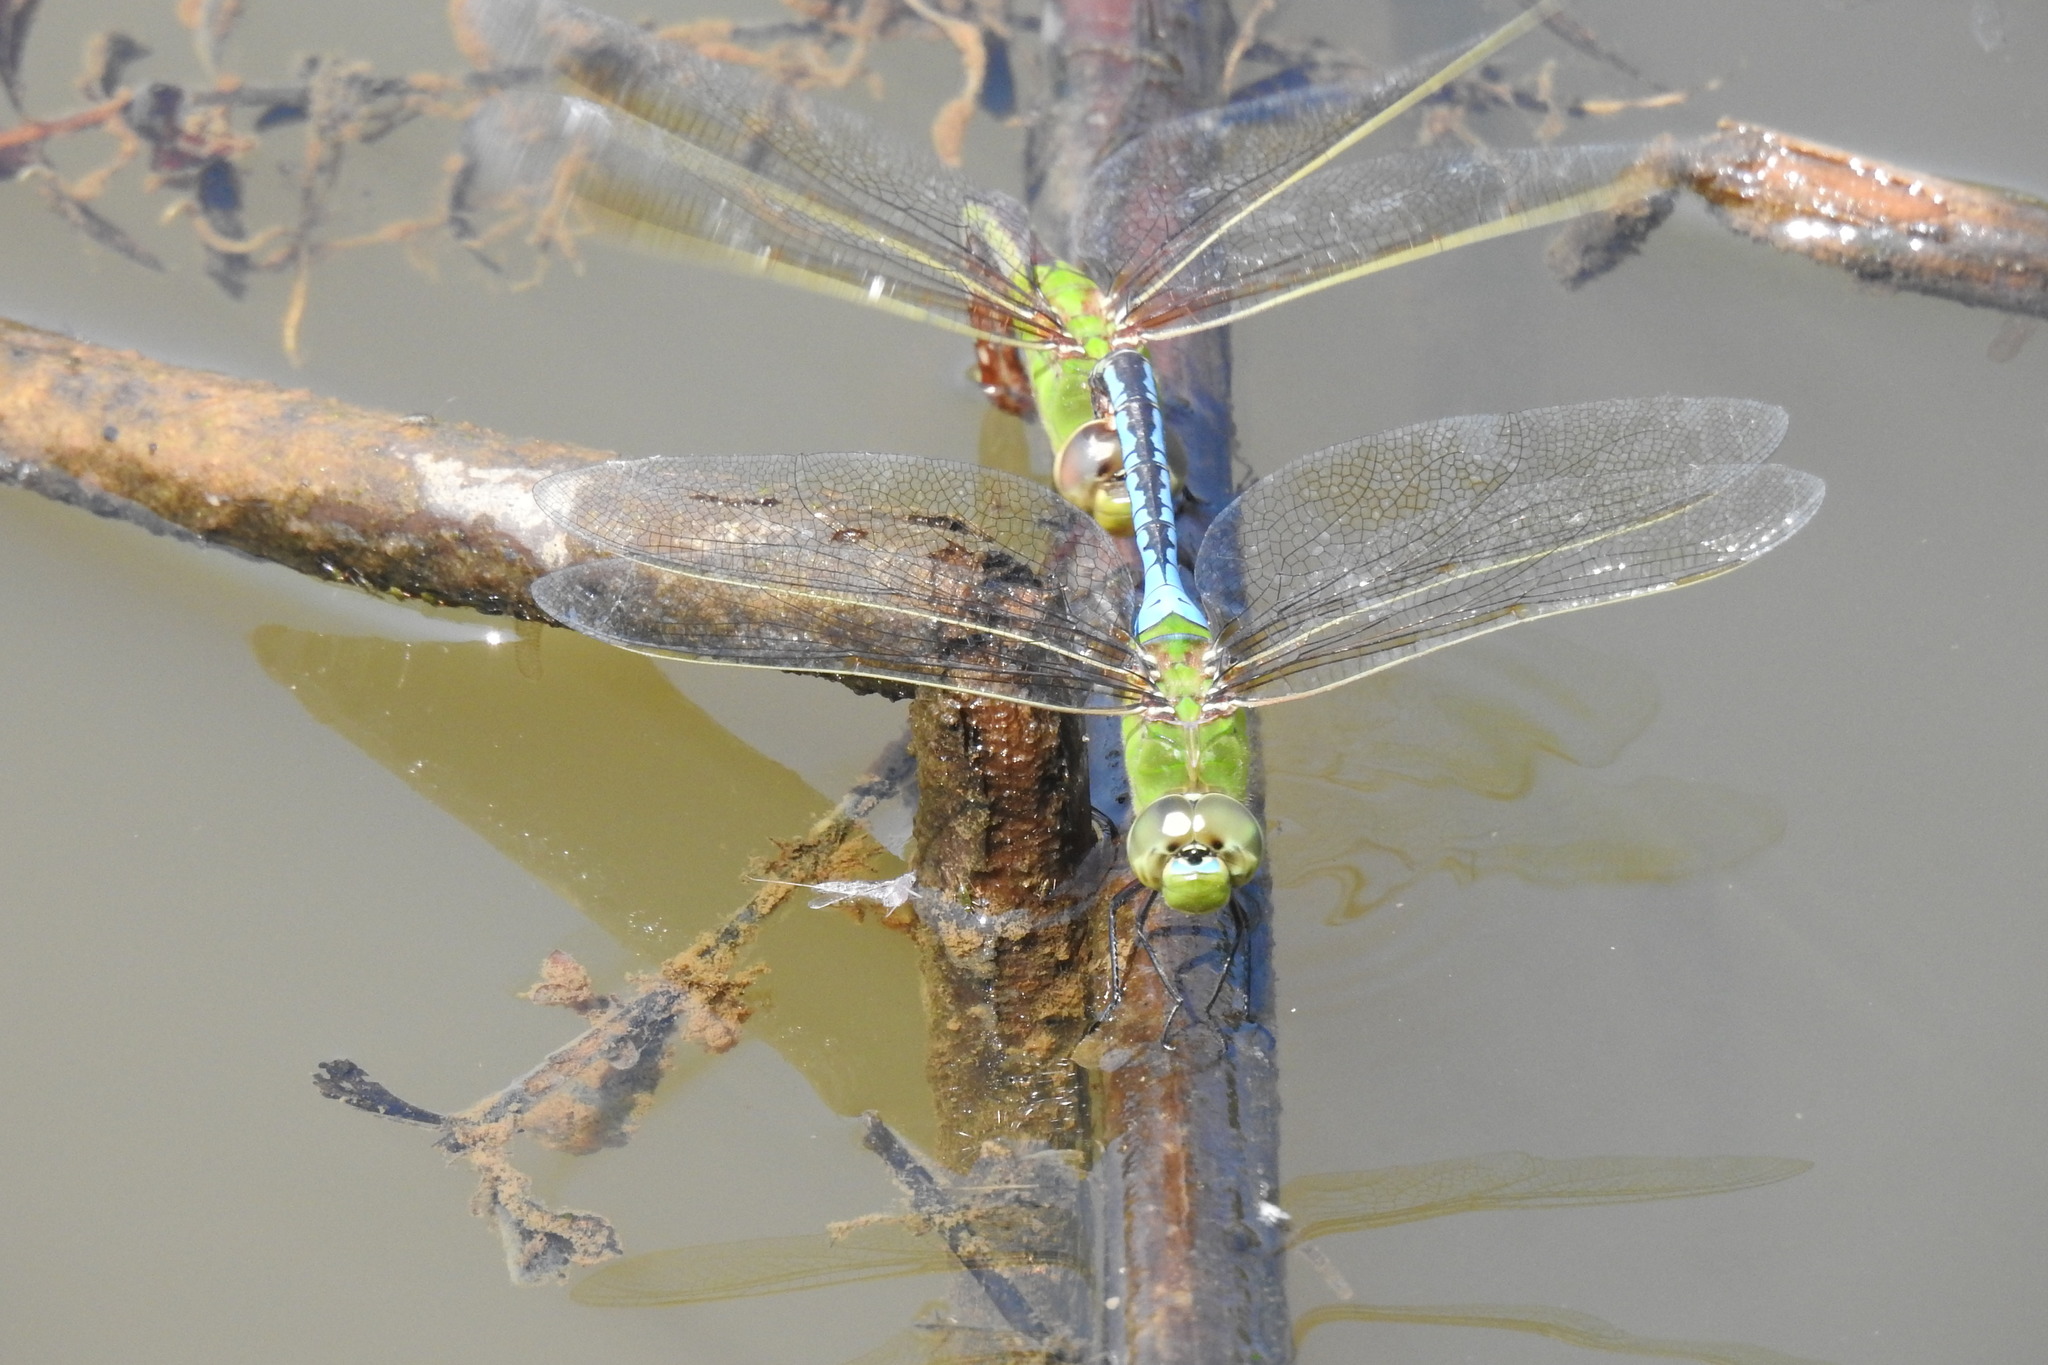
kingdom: Animalia
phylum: Arthropoda
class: Insecta
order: Odonata
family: Aeshnidae
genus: Anax
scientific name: Anax junius
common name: Common green darner
